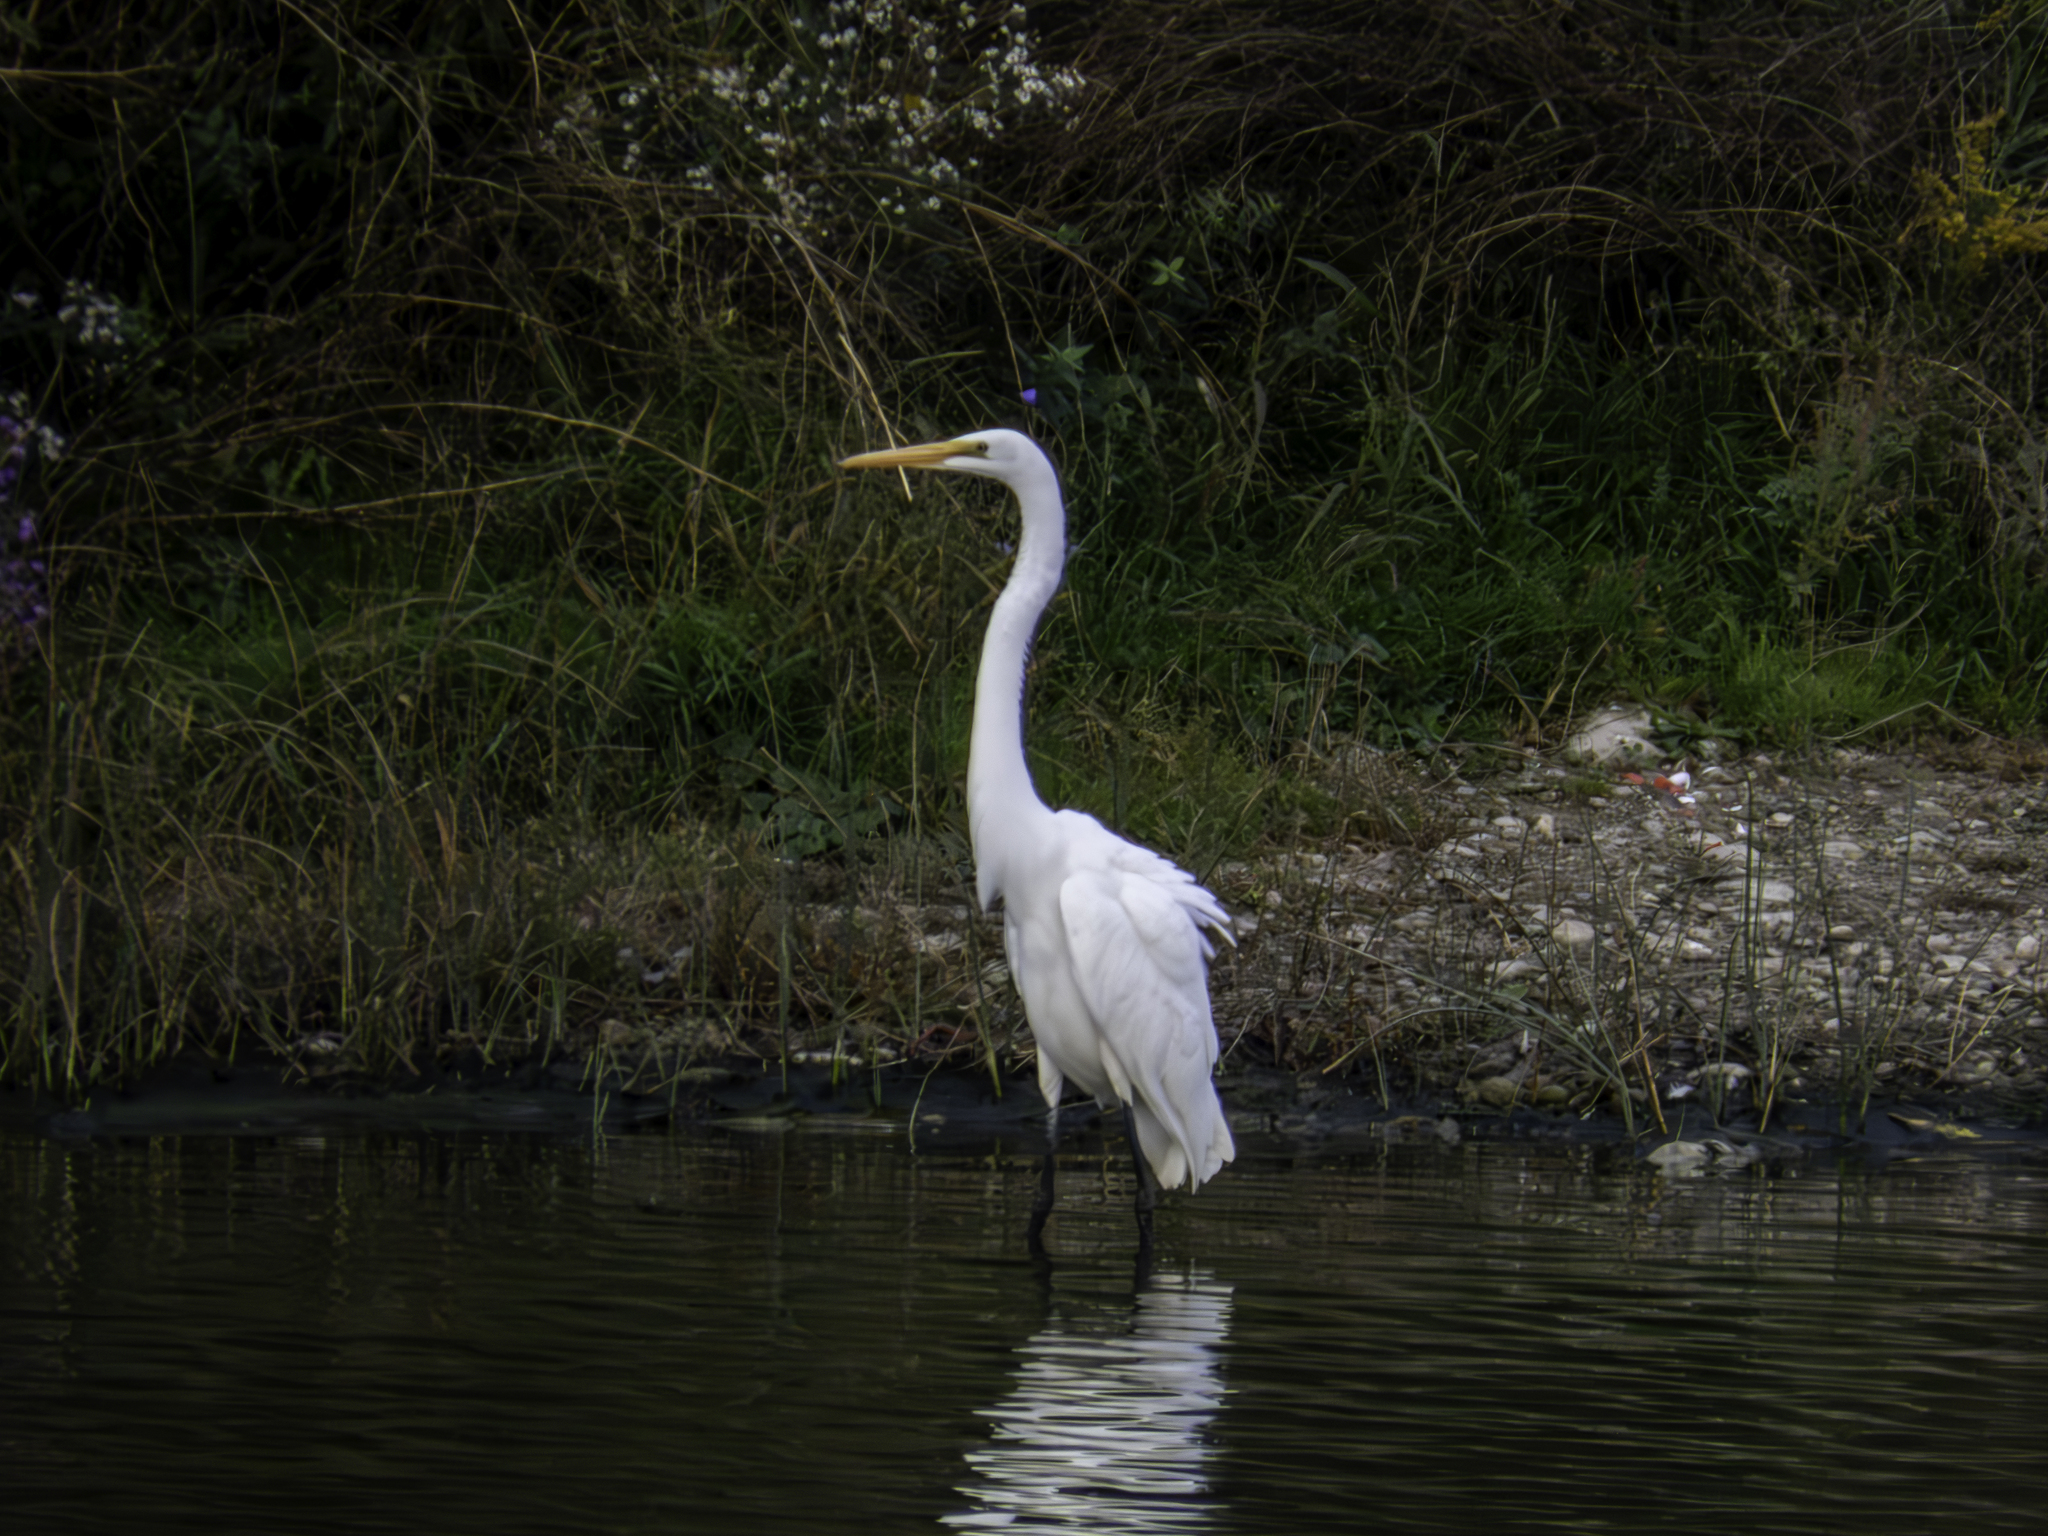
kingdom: Animalia
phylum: Chordata
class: Aves
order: Pelecaniformes
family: Ardeidae
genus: Ardea
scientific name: Ardea alba
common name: Great egret
